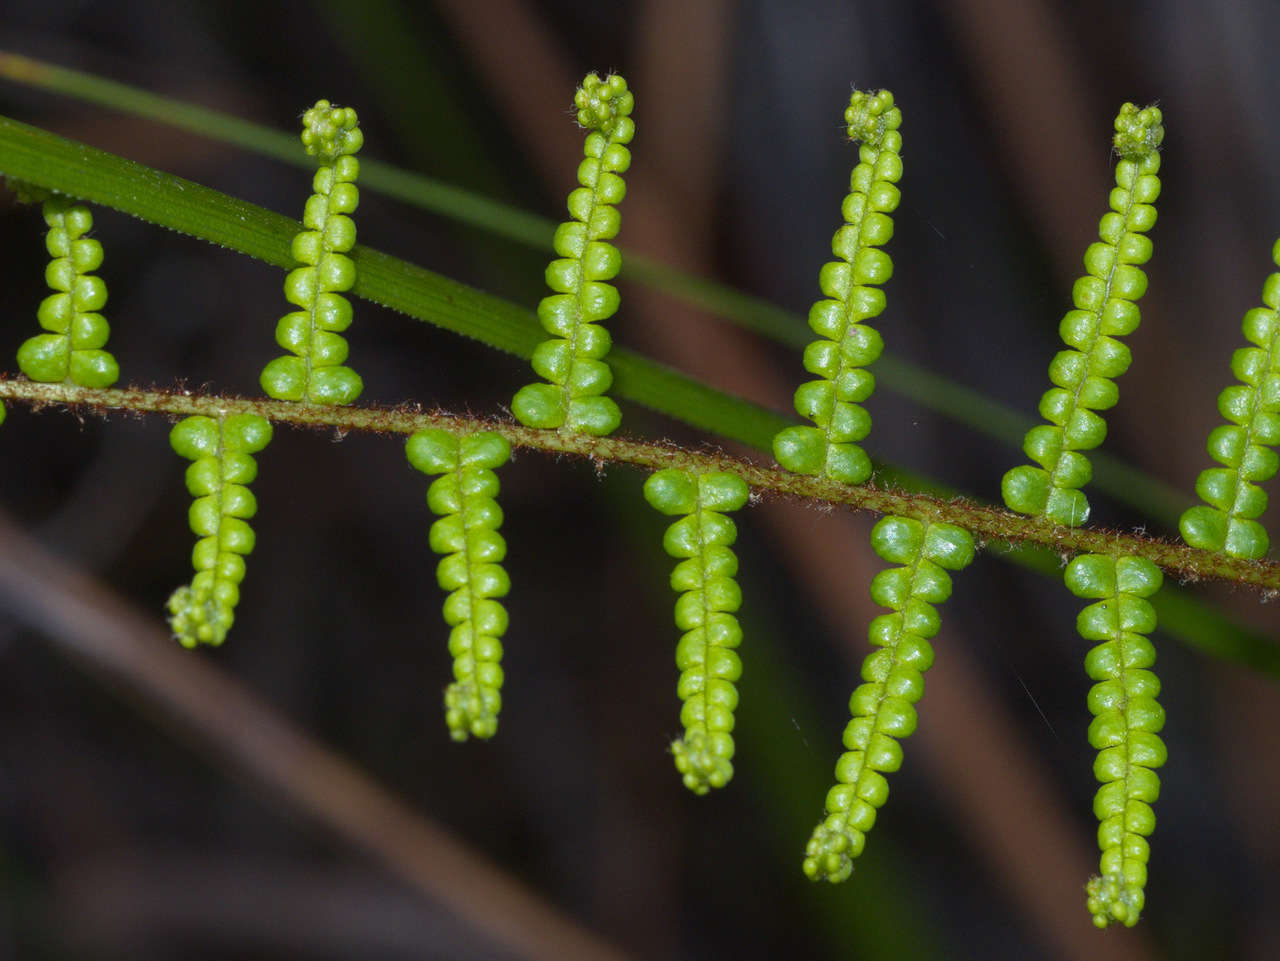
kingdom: Plantae
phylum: Tracheophyta
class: Polypodiopsida
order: Gleicheniales
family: Gleicheniaceae
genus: Gleichenia
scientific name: Gleichenia dicarpa
